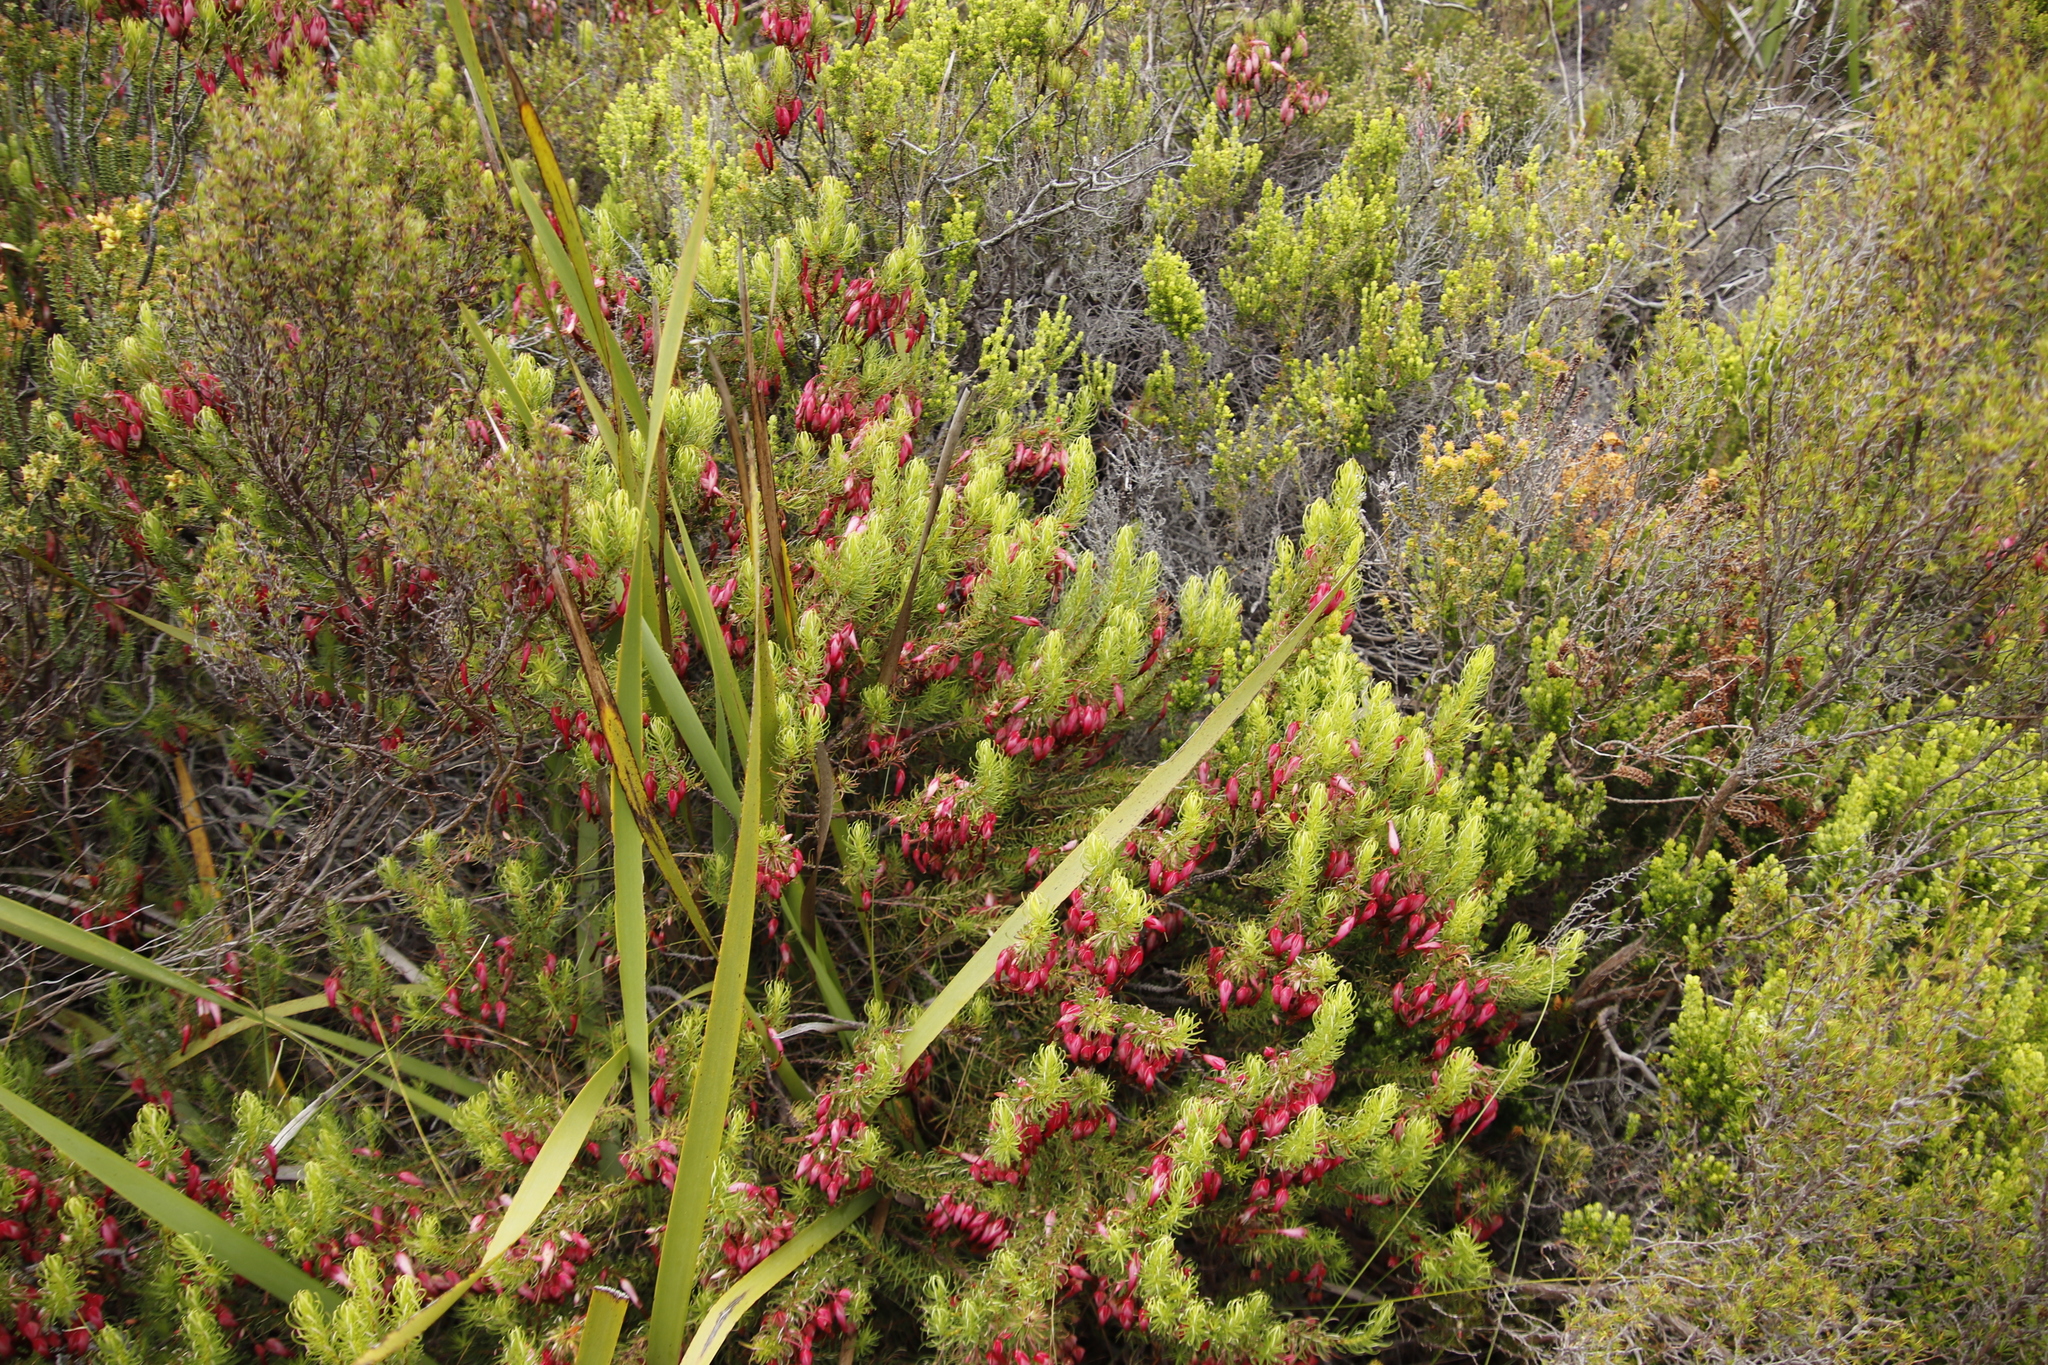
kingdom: Plantae
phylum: Tracheophyta
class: Magnoliopsida
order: Ericales
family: Ericaceae
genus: Erica
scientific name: Erica plukenetii
